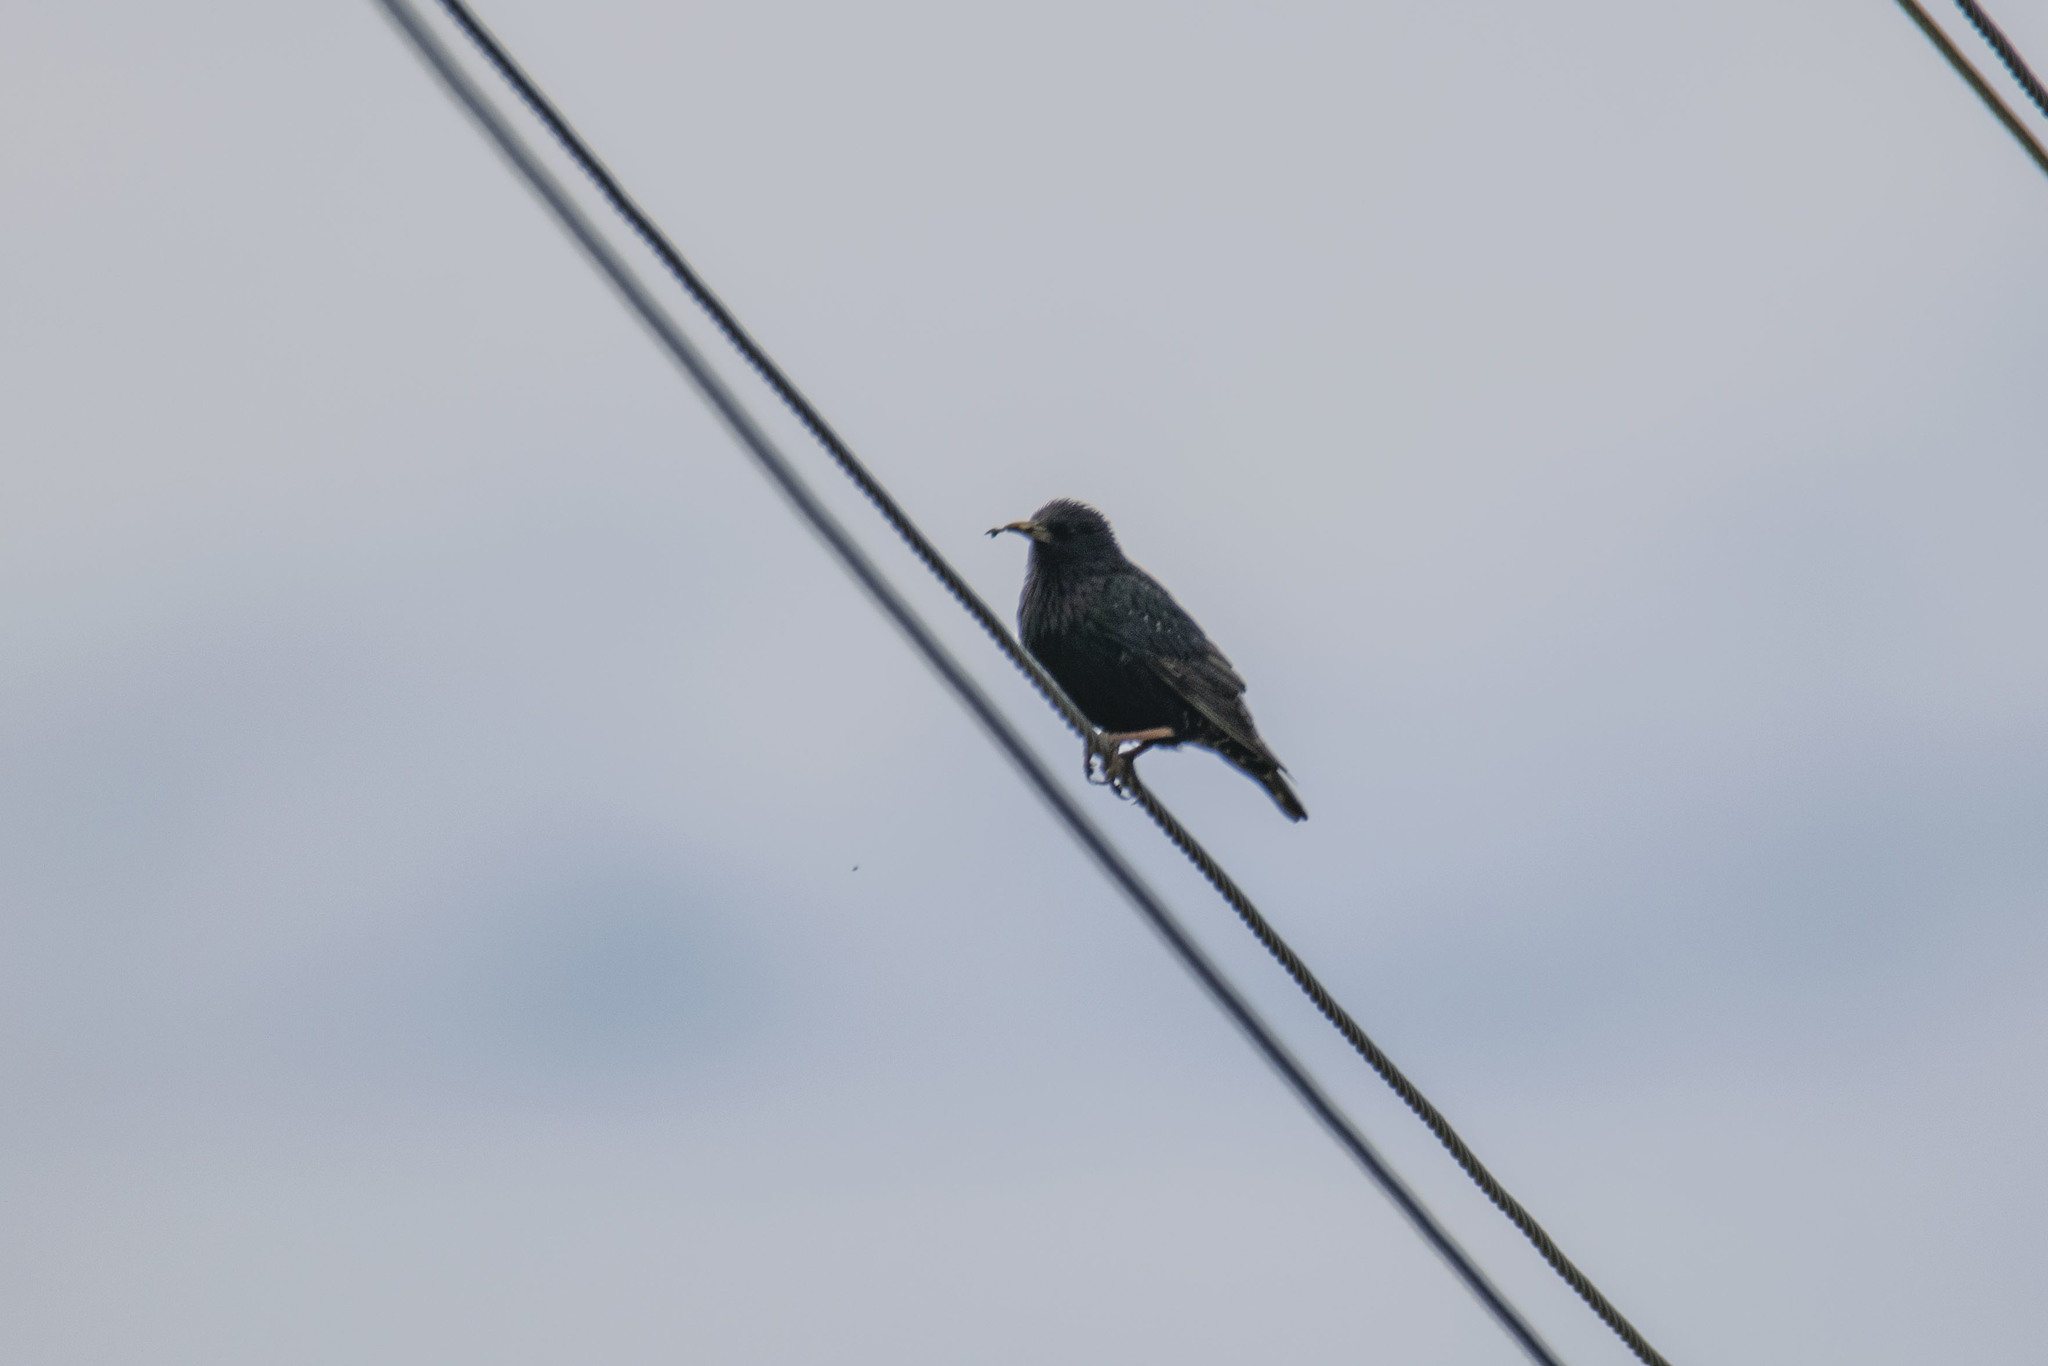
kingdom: Animalia
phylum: Chordata
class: Aves
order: Passeriformes
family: Sturnidae
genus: Sturnus
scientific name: Sturnus vulgaris
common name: Common starling
